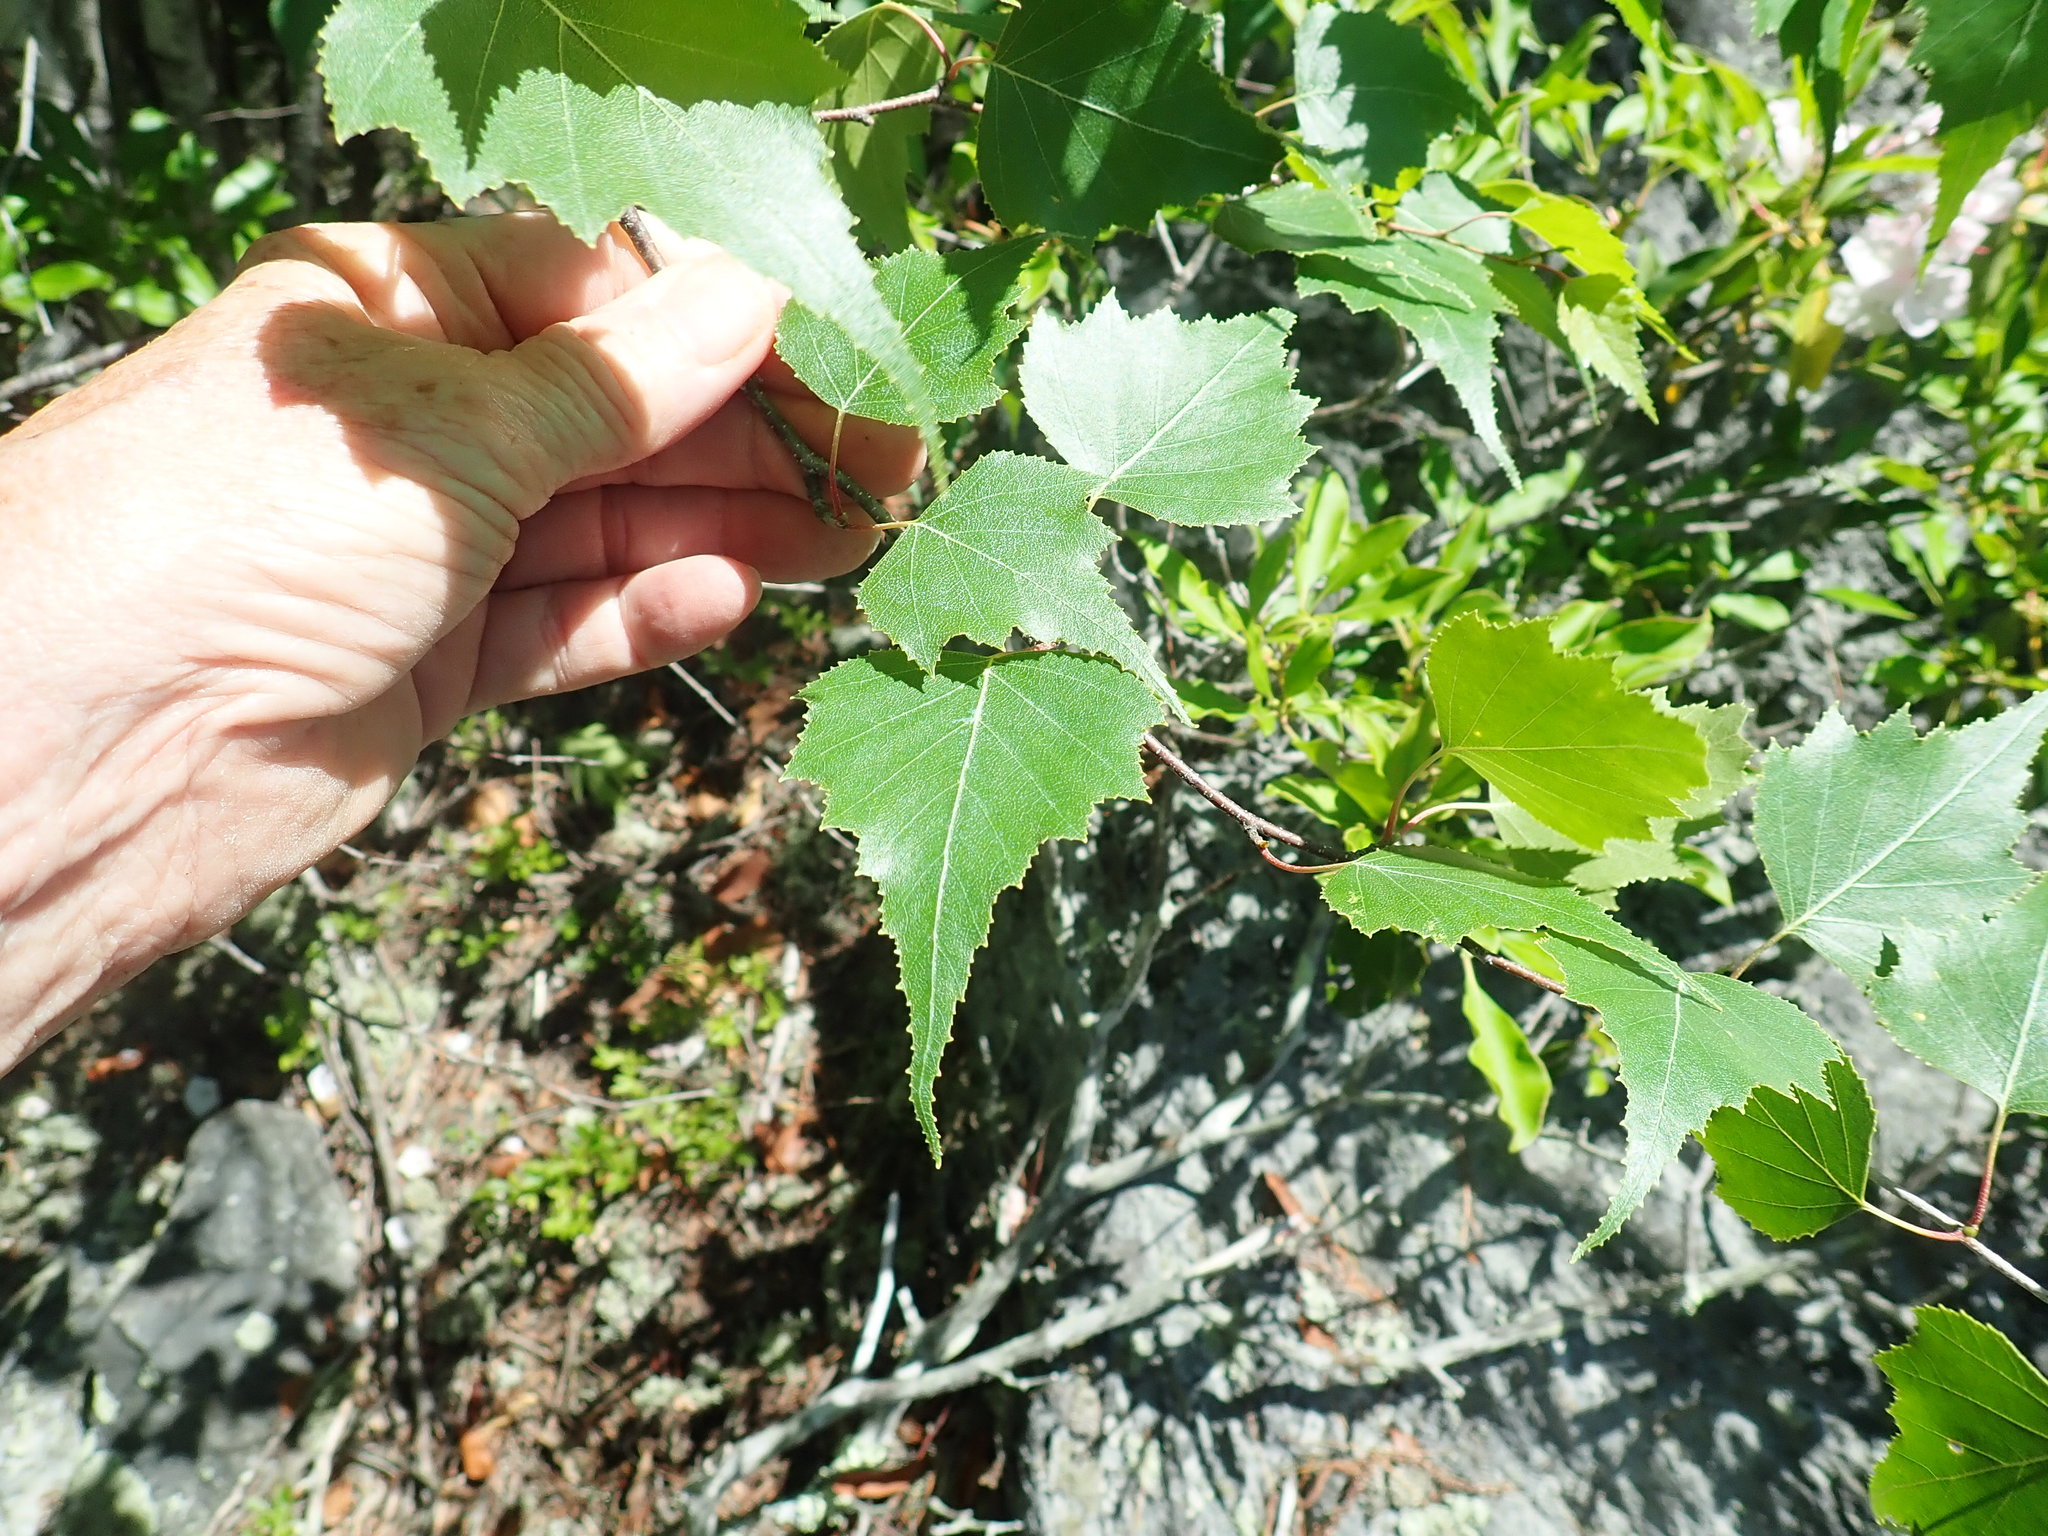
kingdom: Plantae
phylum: Tracheophyta
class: Magnoliopsida
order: Fagales
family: Betulaceae
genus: Betula
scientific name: Betula populifolia
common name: Fire birch
